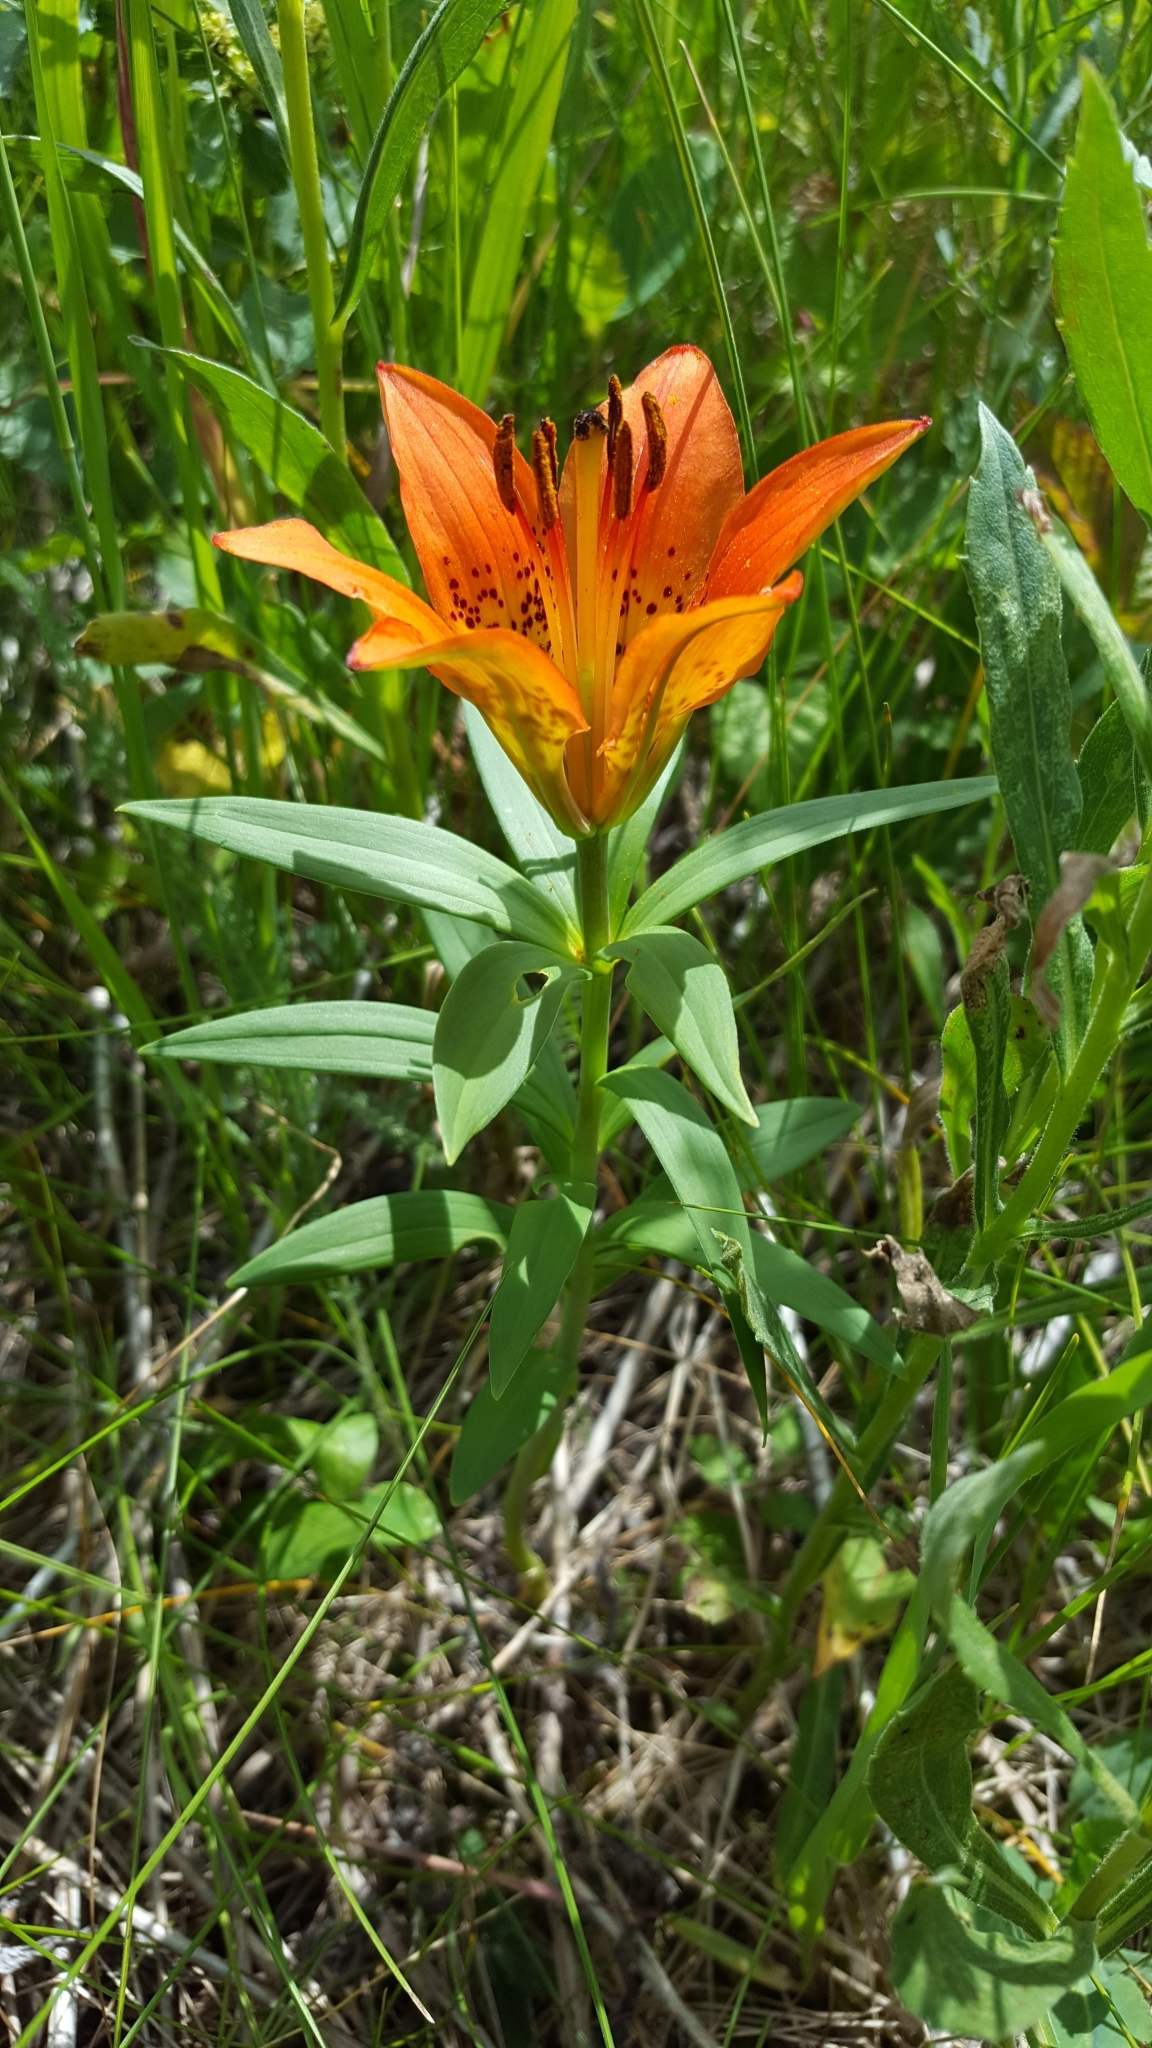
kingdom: Plantae
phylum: Tracheophyta
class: Liliopsida
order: Liliales
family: Liliaceae
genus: Lilium
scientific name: Lilium philadelphicum
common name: Red lily
